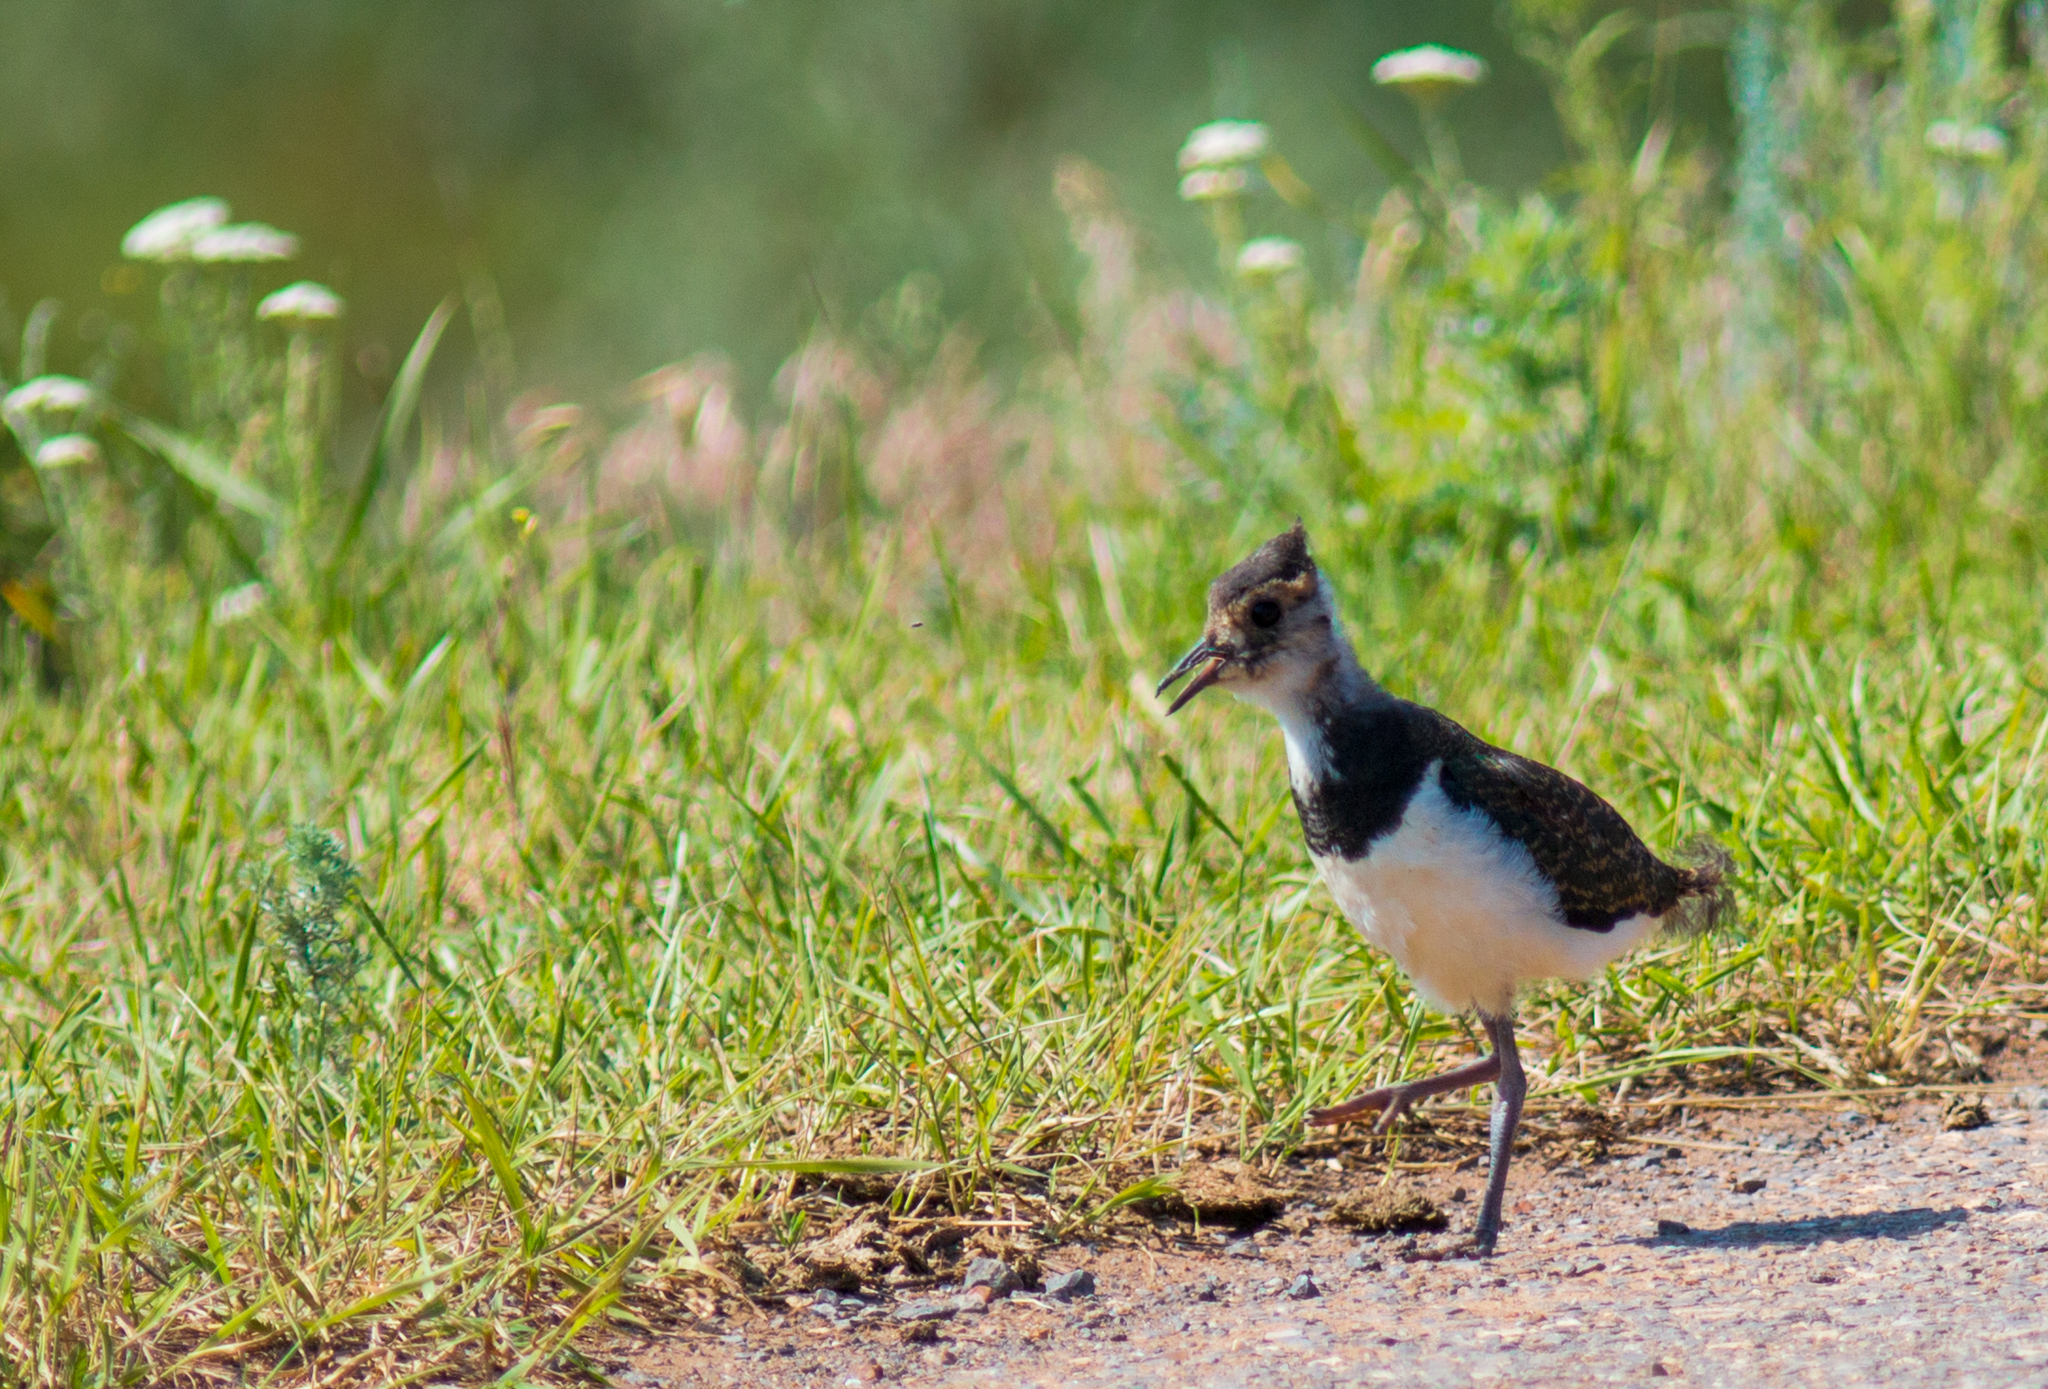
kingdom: Animalia
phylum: Chordata
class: Aves
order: Charadriiformes
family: Charadriidae
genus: Vanellus
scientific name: Vanellus vanellus
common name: Northern lapwing
